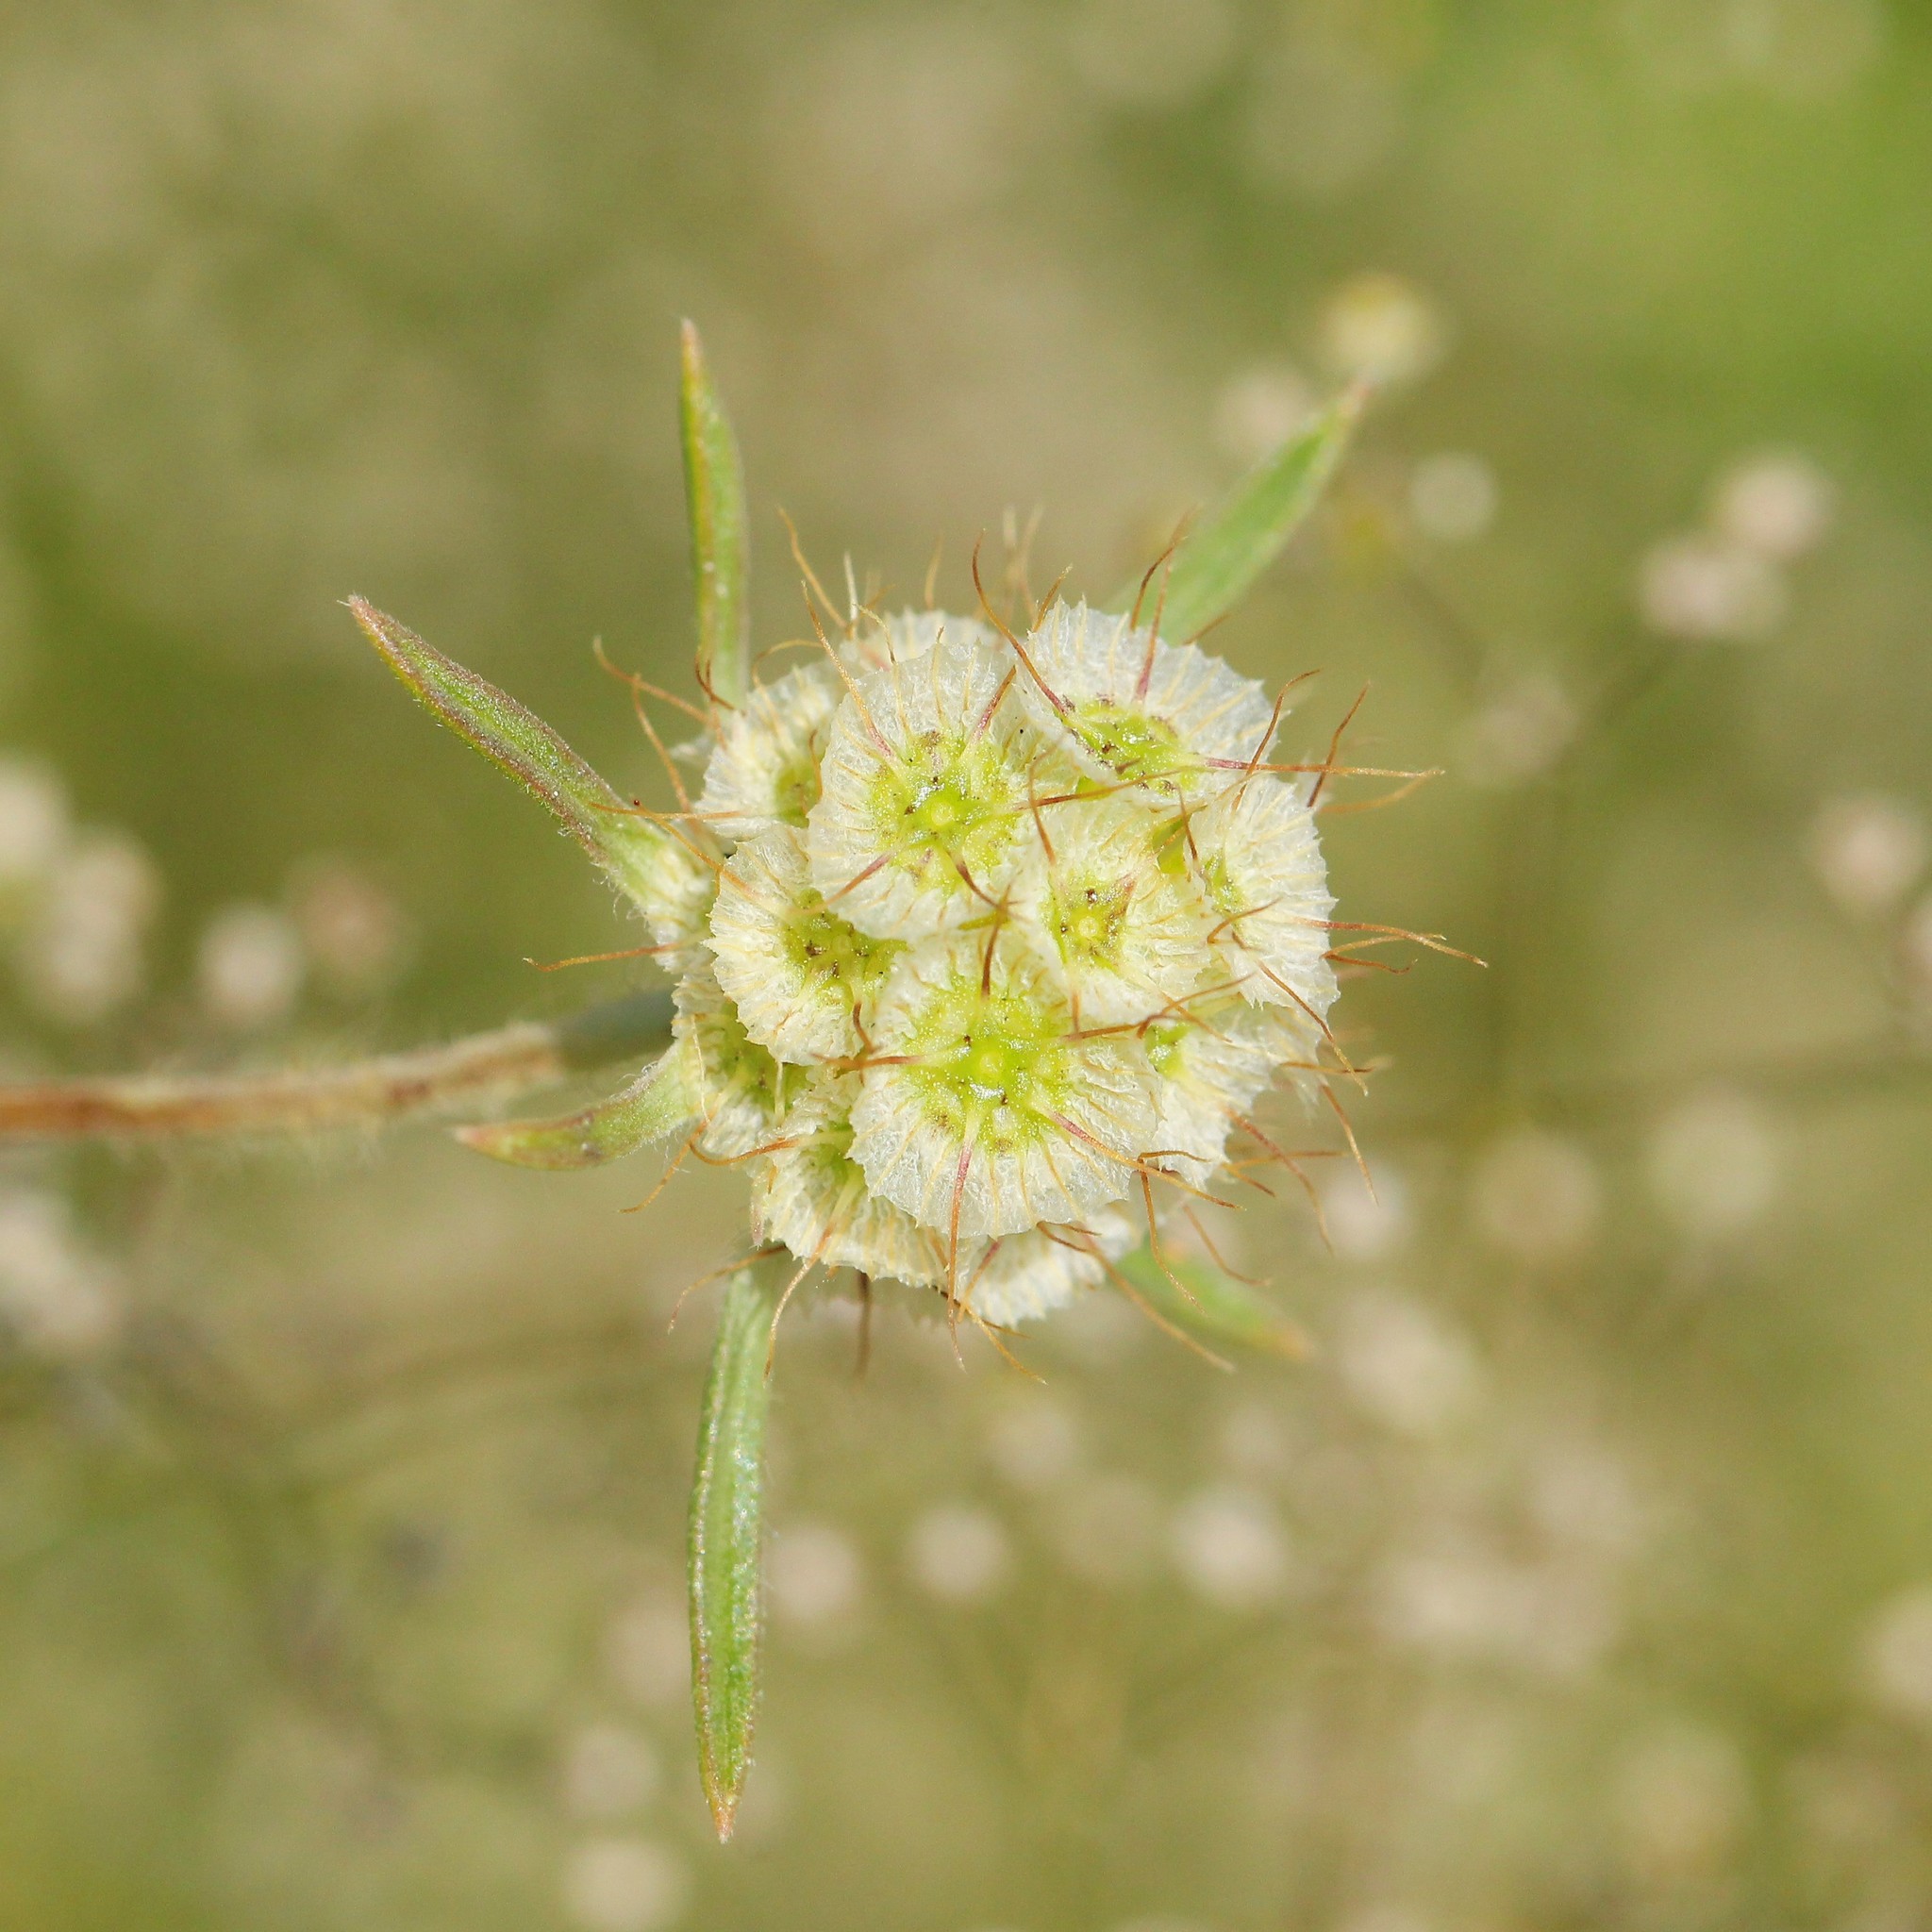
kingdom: Plantae
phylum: Tracheophyta
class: Magnoliopsida
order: Dipsacales
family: Caprifoliaceae
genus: Lomelosia
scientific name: Lomelosia argentea
